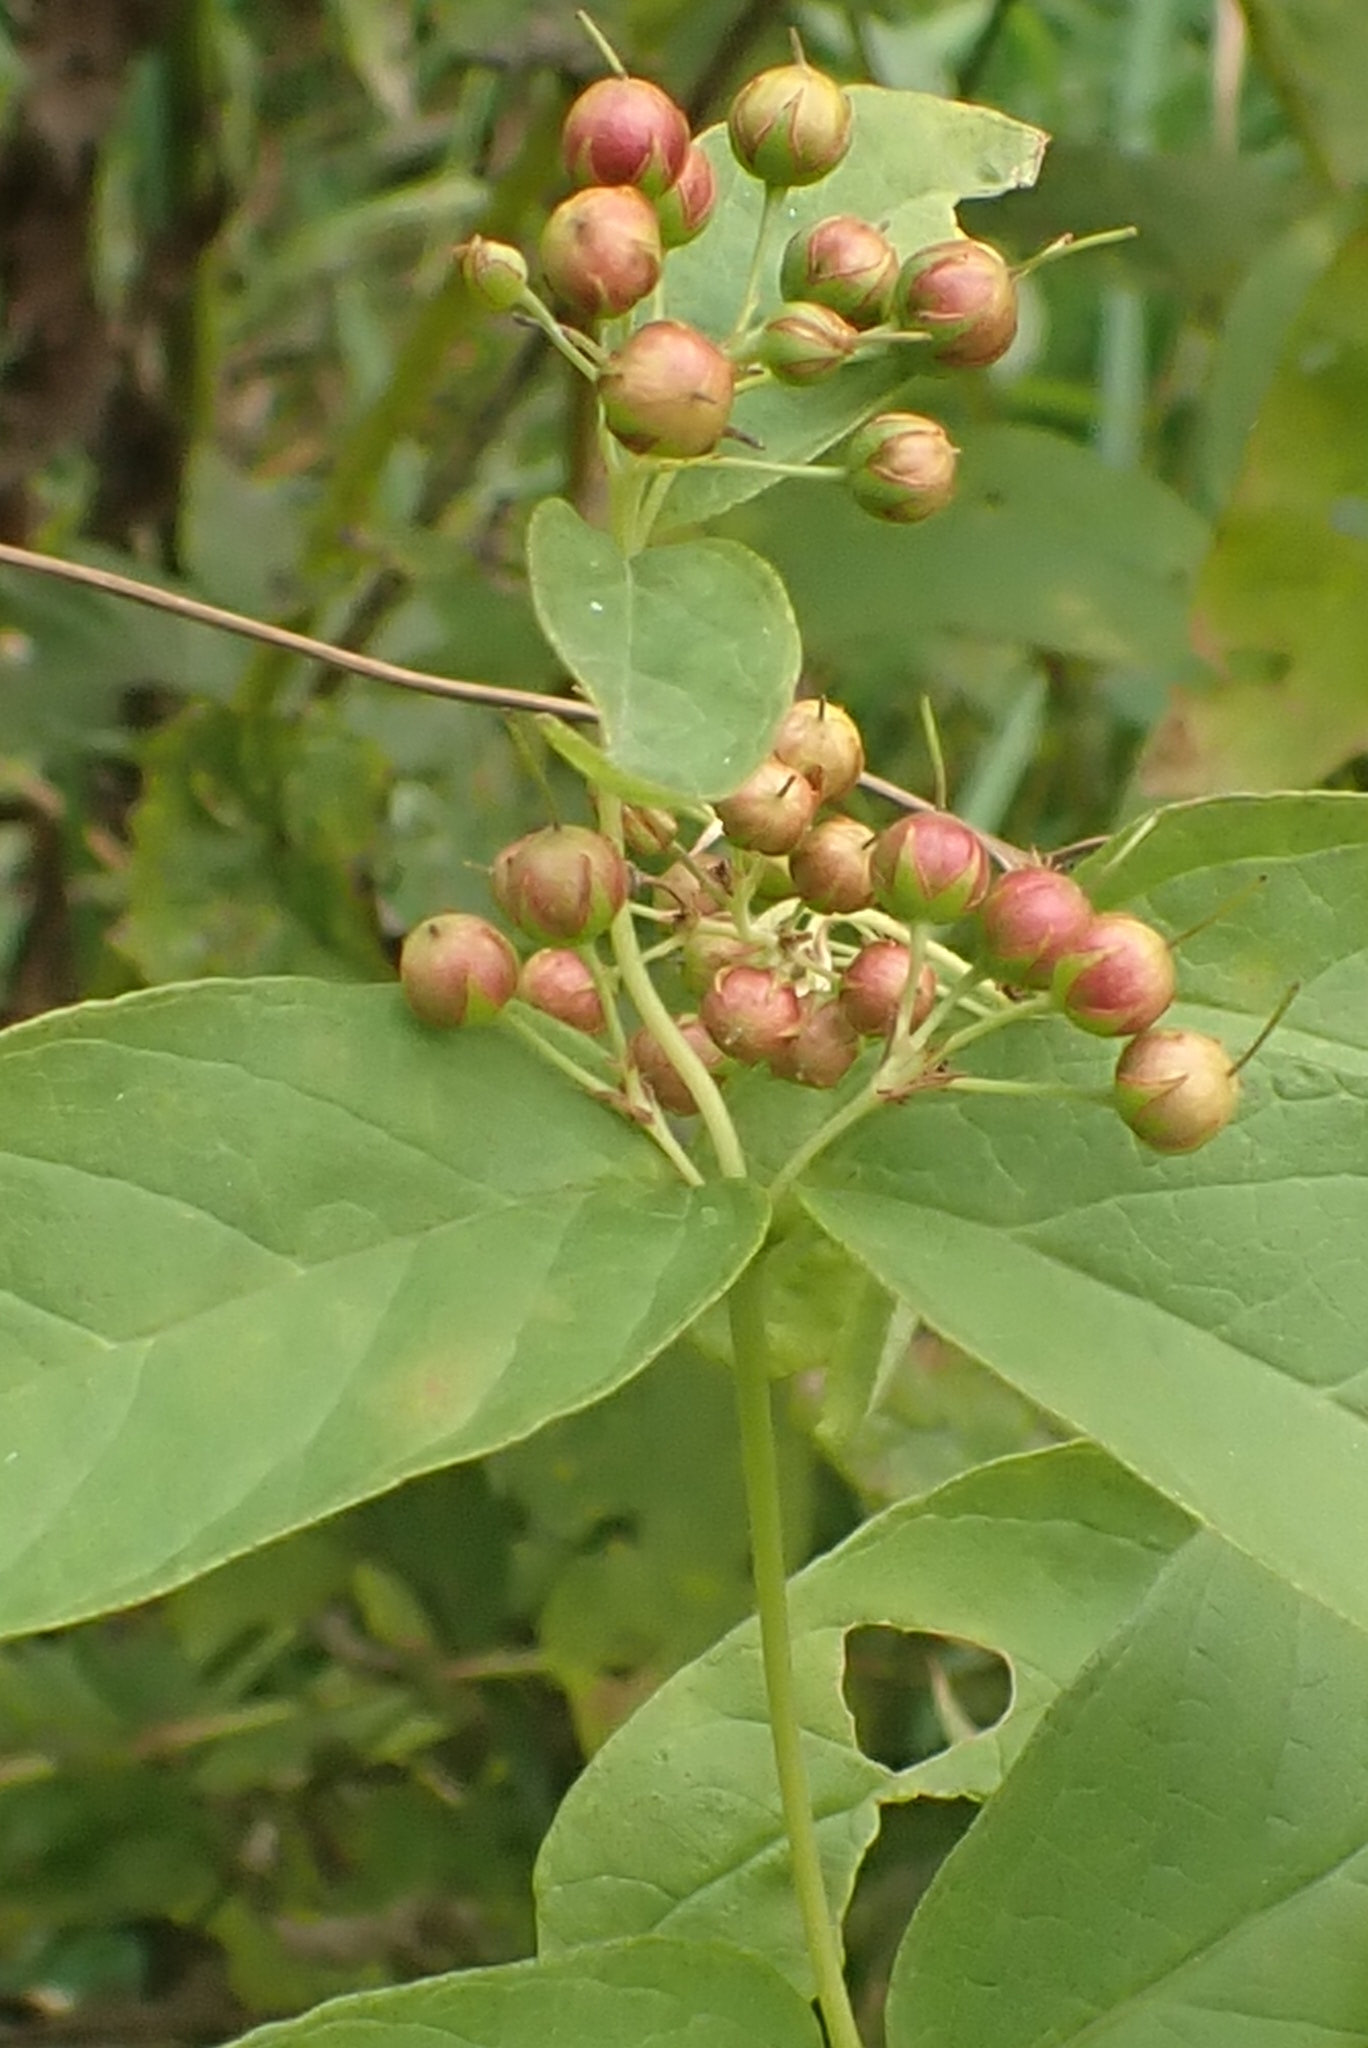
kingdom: Plantae
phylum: Tracheophyta
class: Magnoliopsida
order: Ericales
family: Primulaceae
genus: Lysimachia
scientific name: Lysimachia vulgaris
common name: Yellow loosestrife
